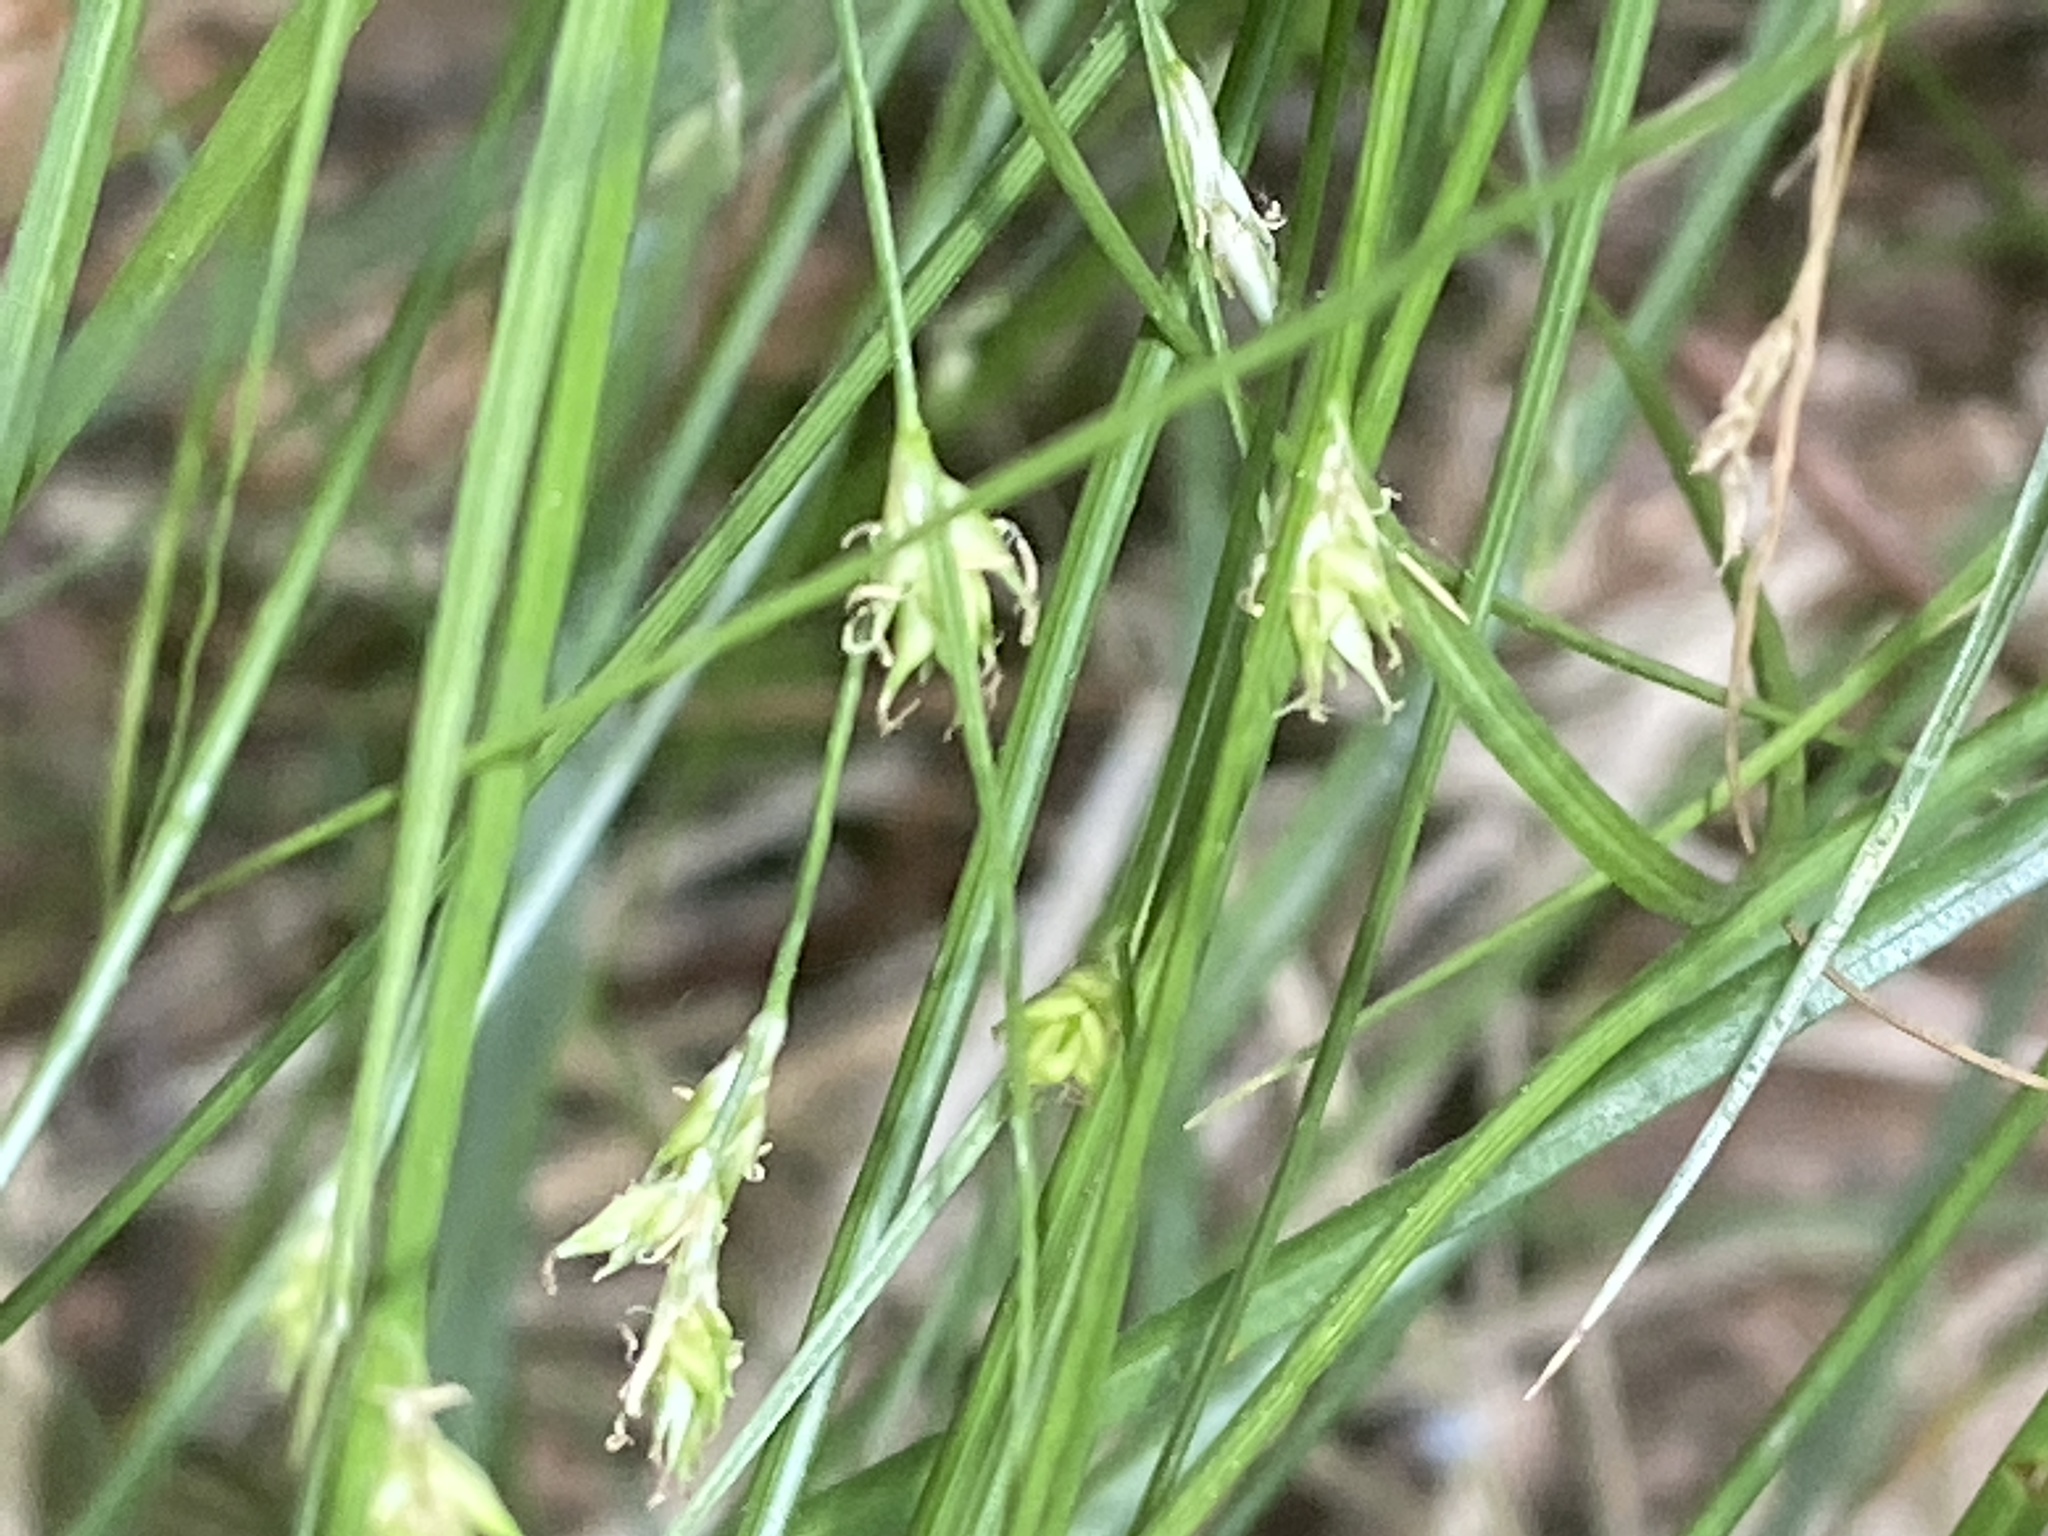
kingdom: Plantae
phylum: Tracheophyta
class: Liliopsida
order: Poales
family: Cyperaceae
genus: Carex
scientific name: Carex remota
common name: Remote sedge
